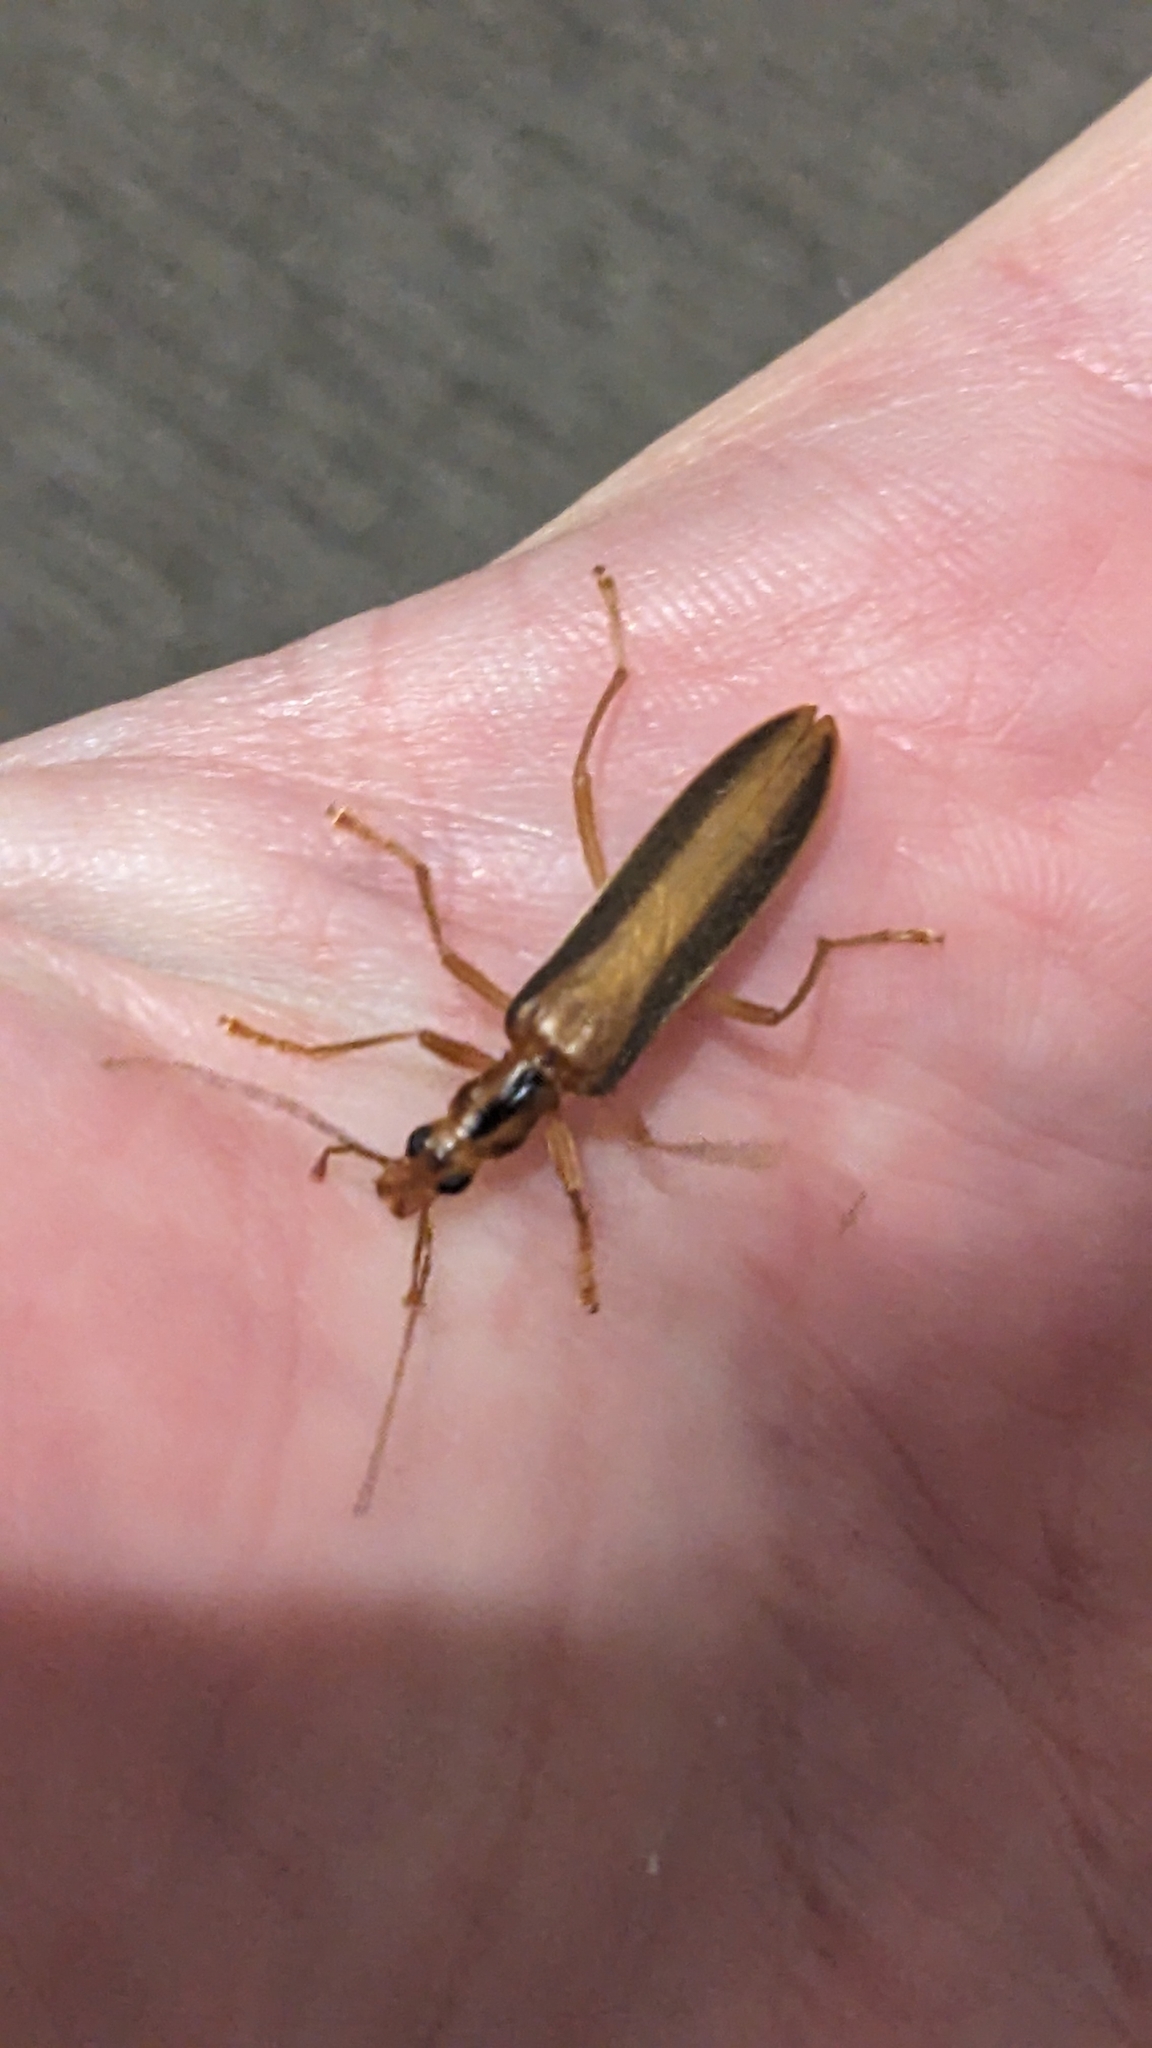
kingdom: Animalia
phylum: Arthropoda
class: Insecta
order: Coleoptera
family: Oedemeridae
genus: Thelyphassa
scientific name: Thelyphassa
